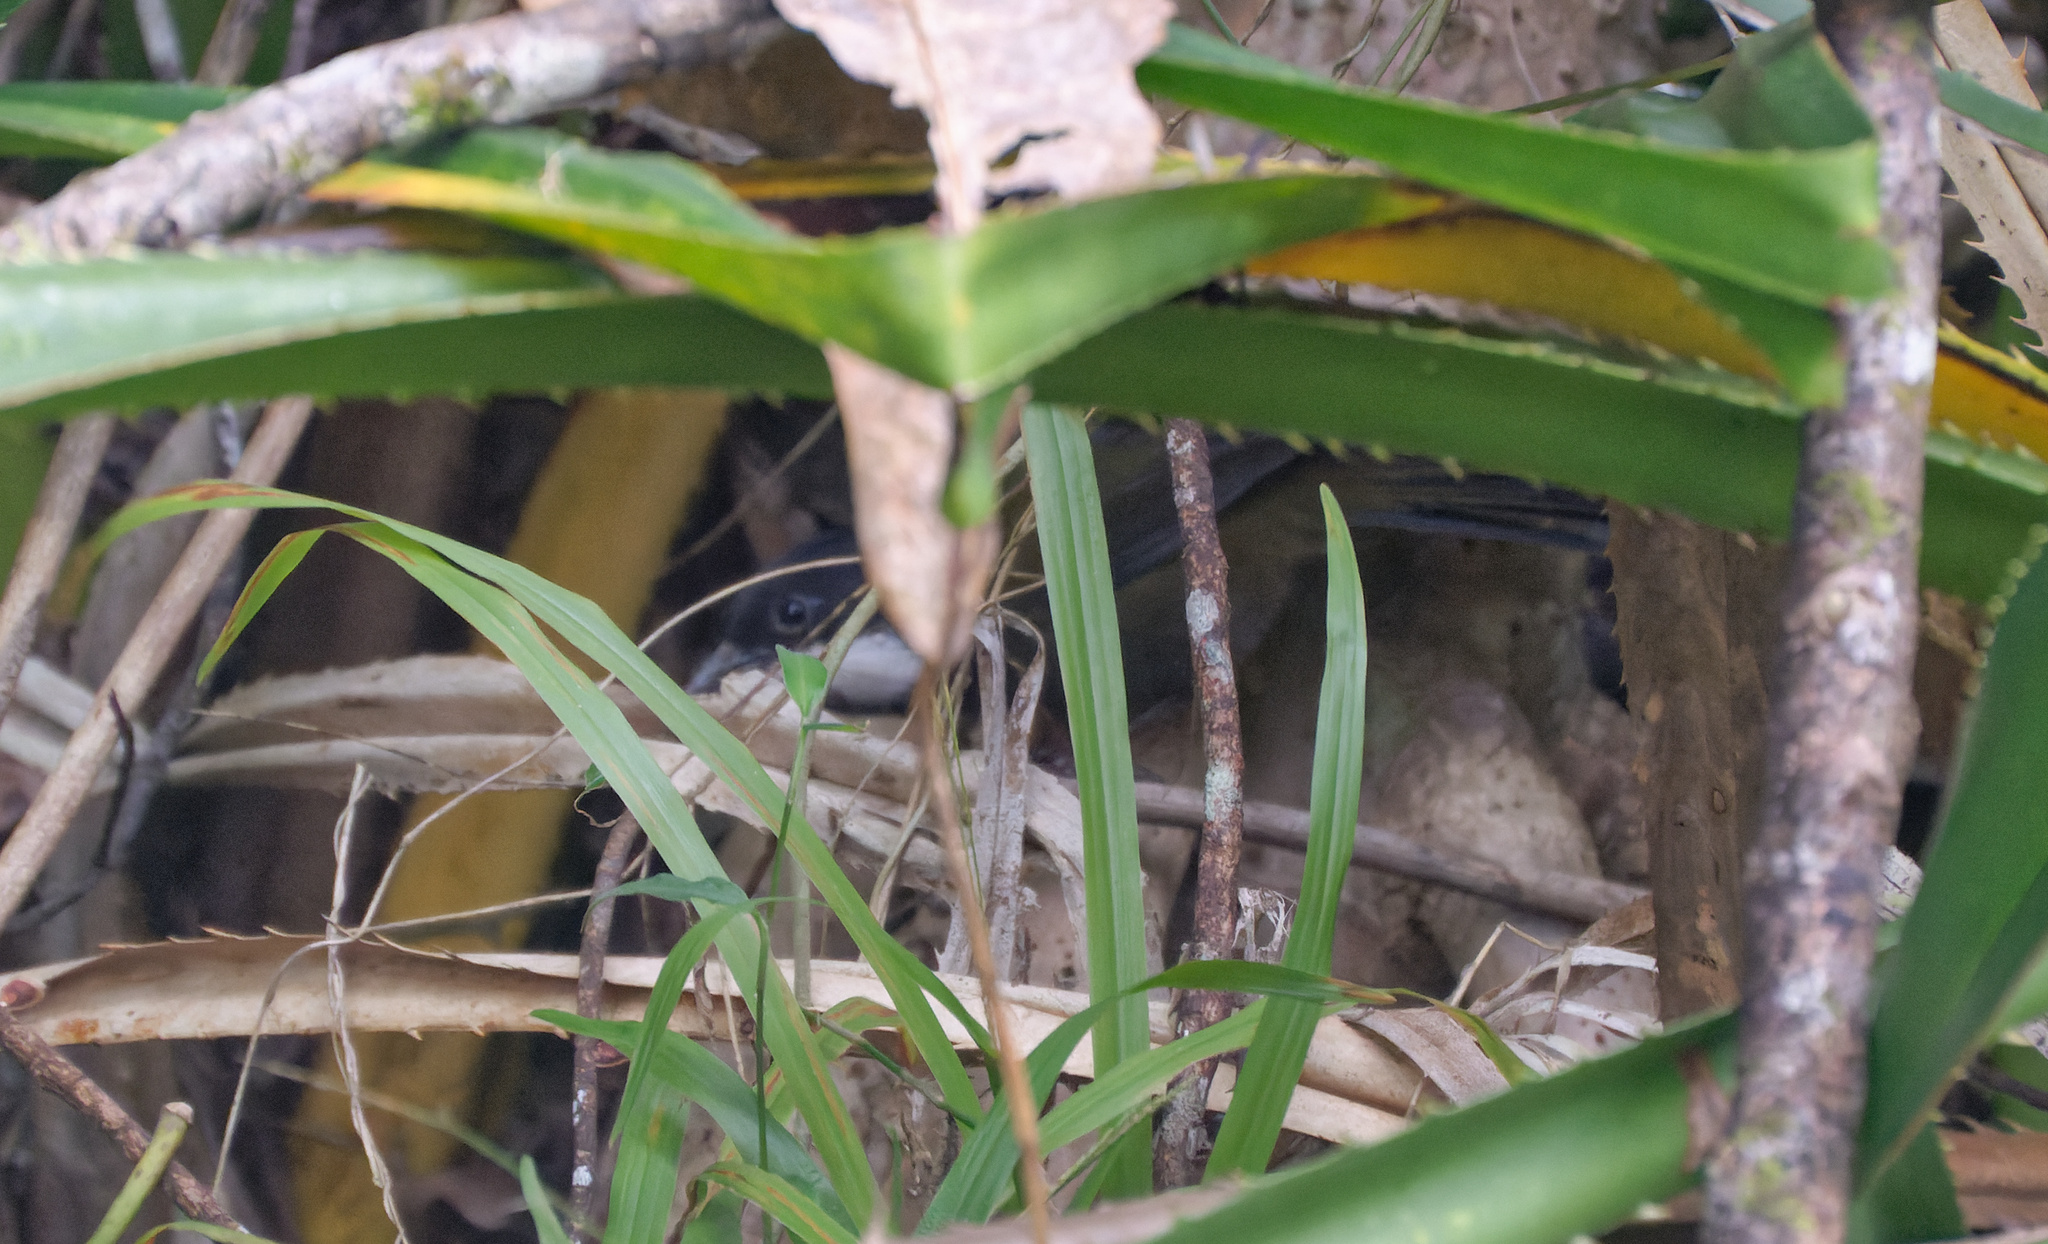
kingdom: Animalia
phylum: Chordata
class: Aves
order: Passeriformes
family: Psophodidae
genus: Psophodes
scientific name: Psophodes olivaceus
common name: Eastern whipbird
